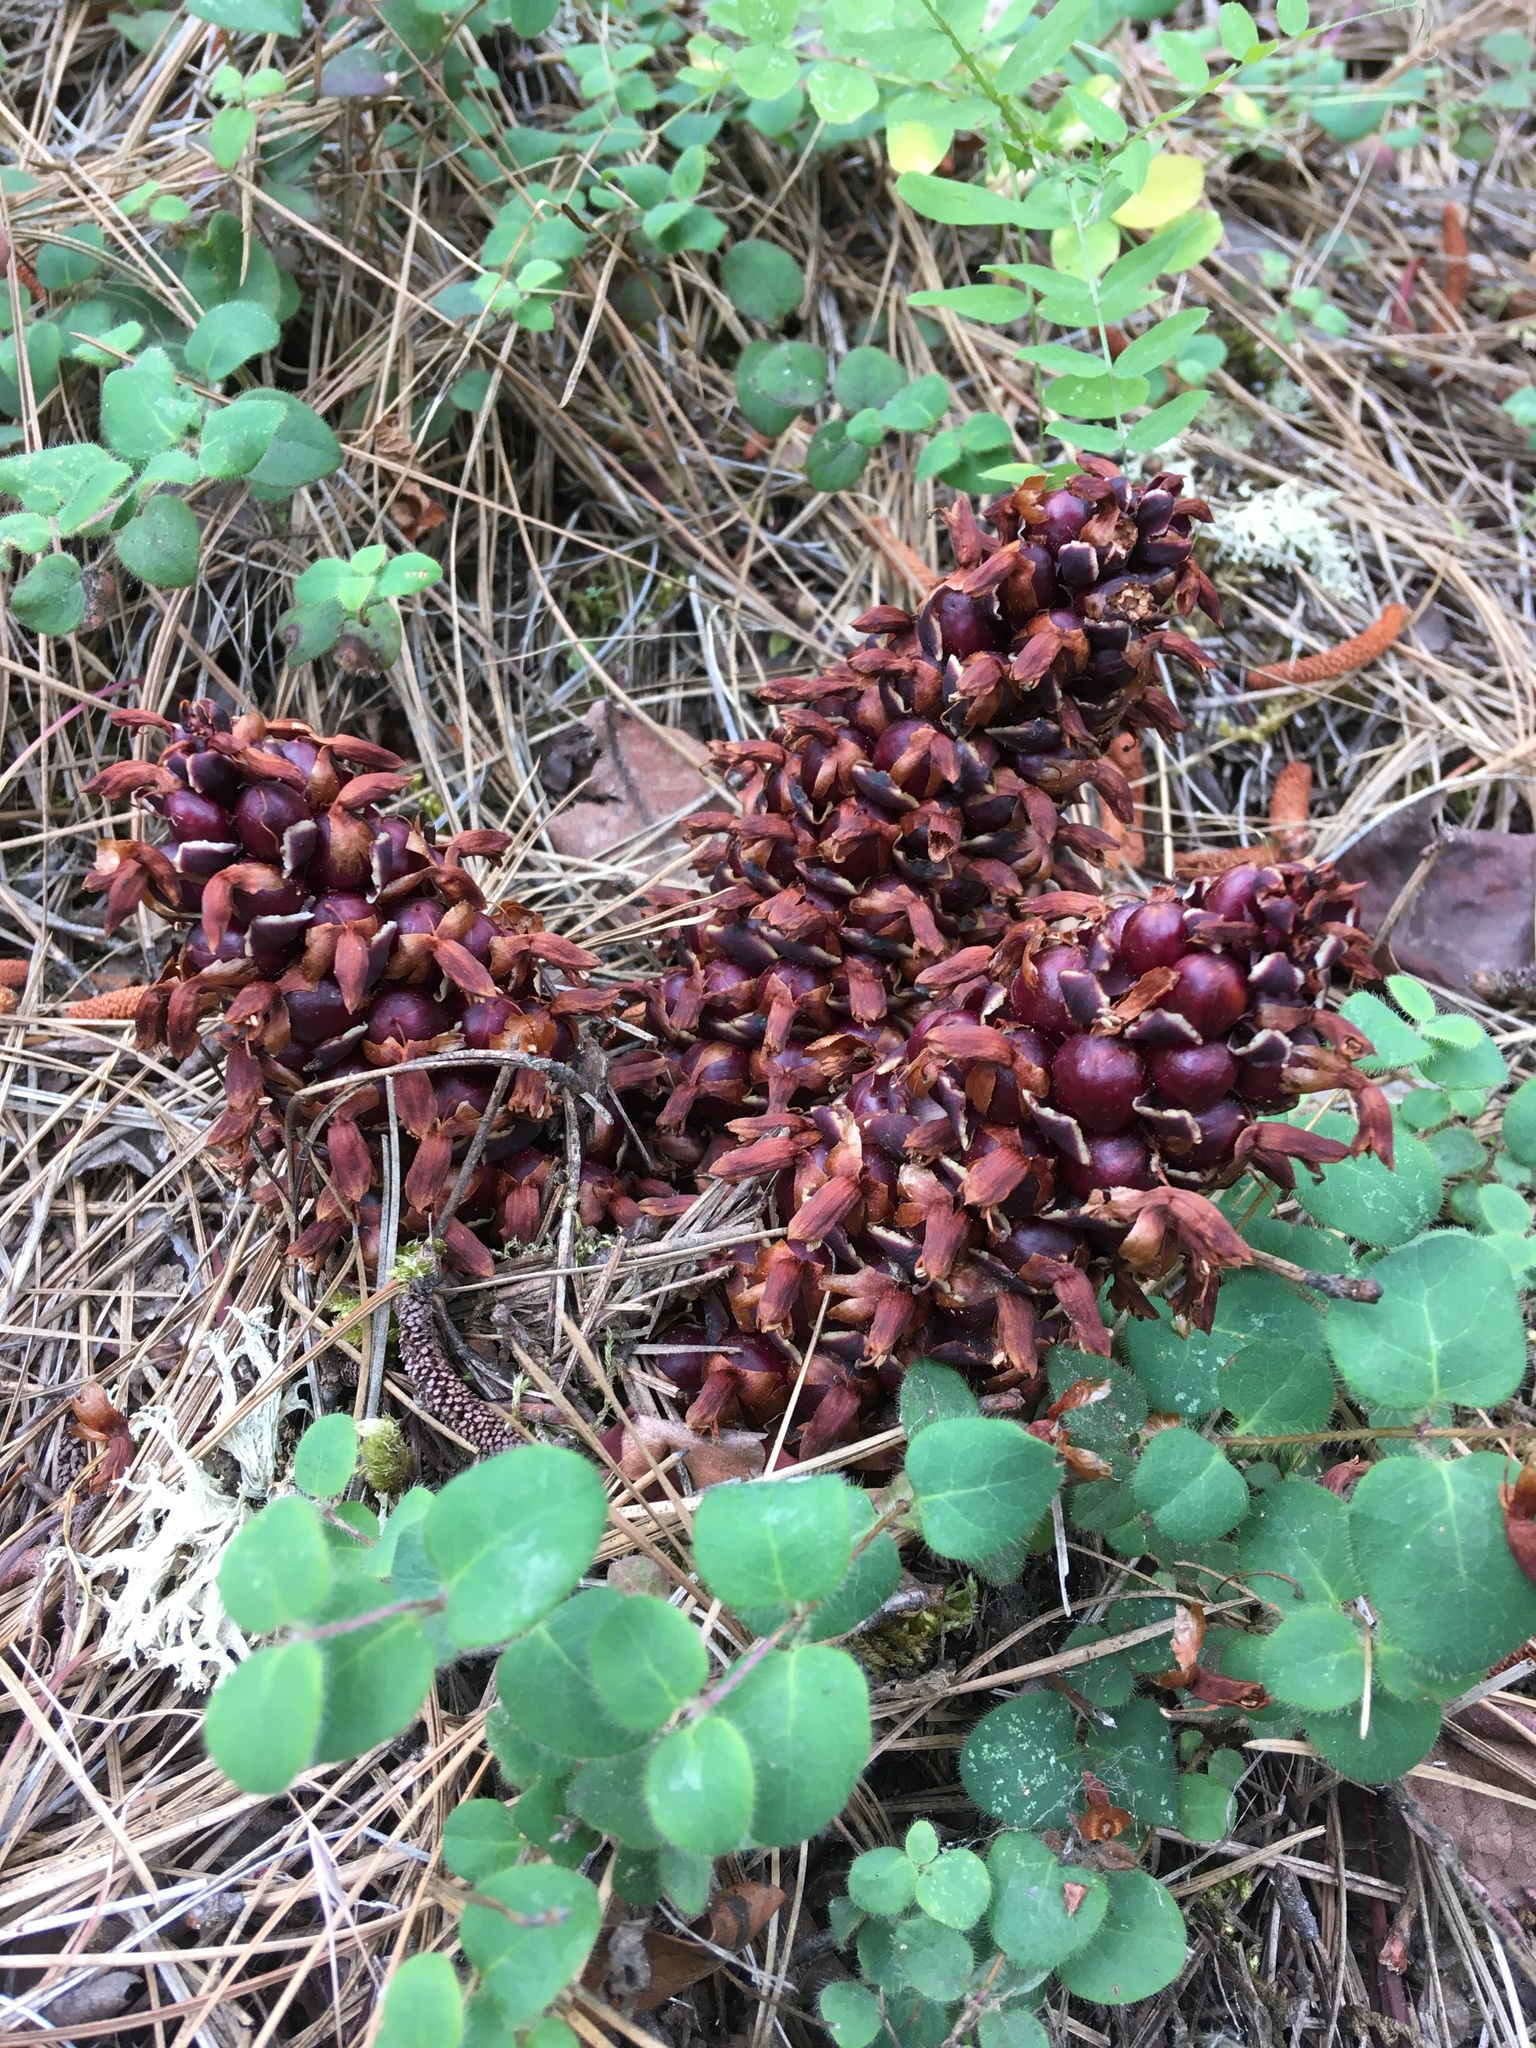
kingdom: Plantae
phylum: Tracheophyta
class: Magnoliopsida
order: Lamiales
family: Orobanchaceae
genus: Kopsiopsis
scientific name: Kopsiopsis strobilacea
